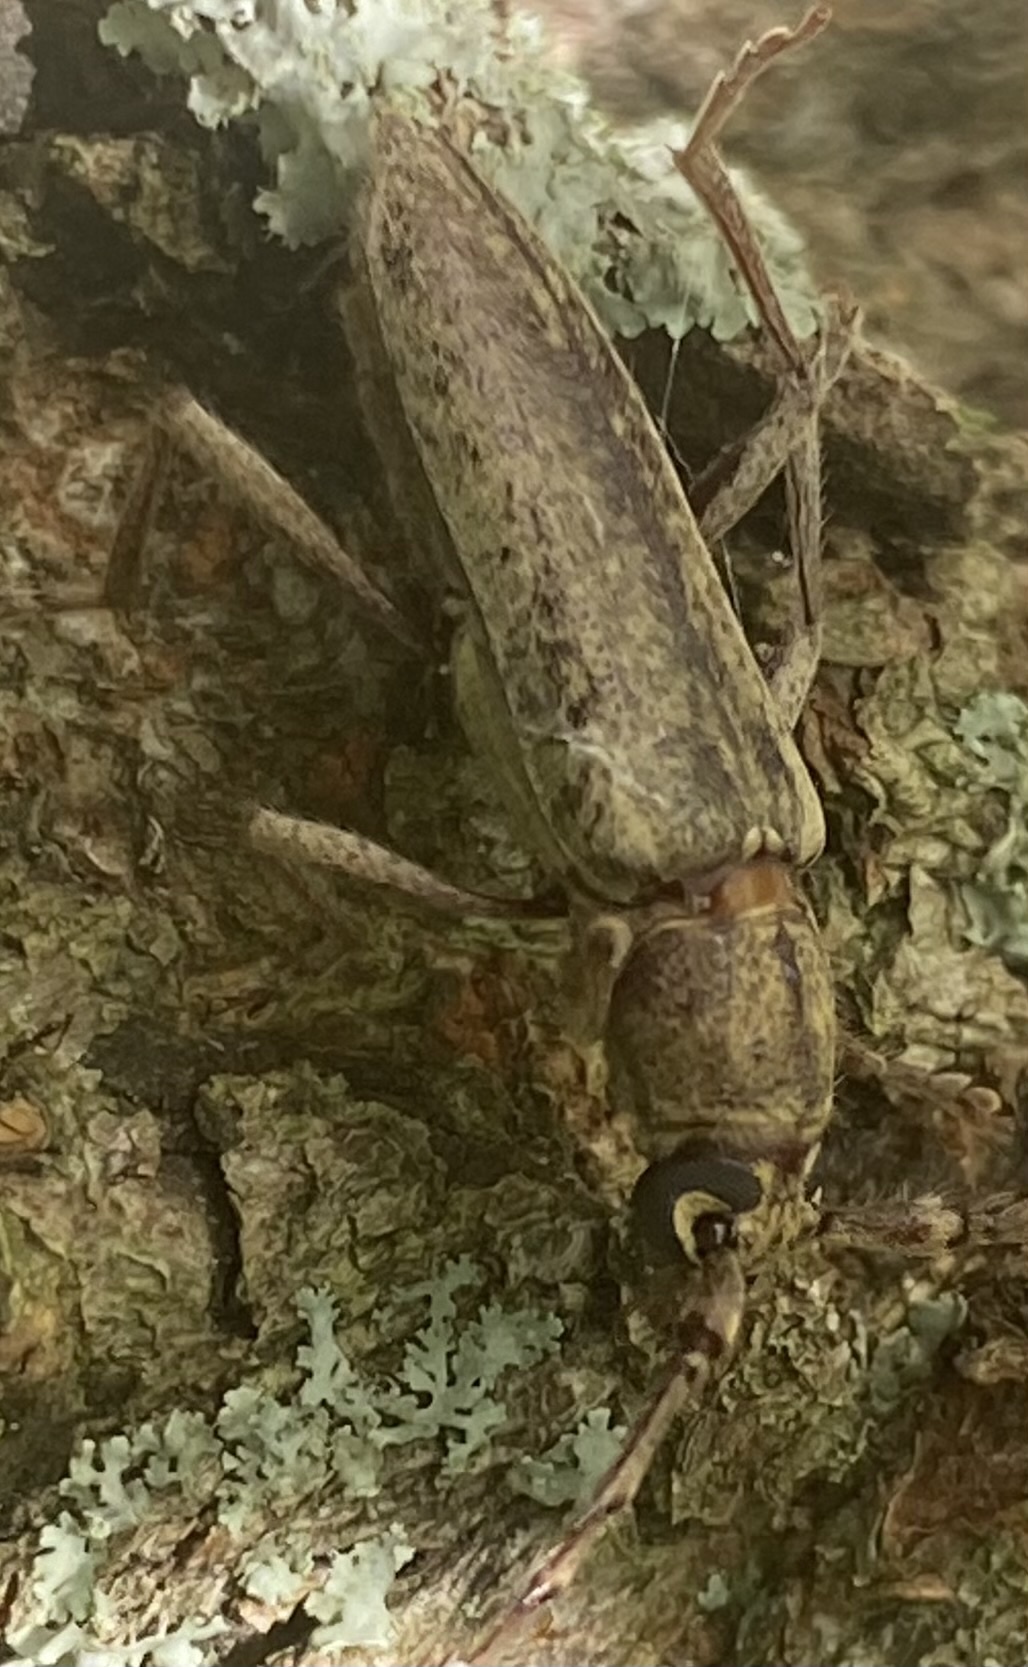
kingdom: Animalia
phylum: Arthropoda
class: Insecta
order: Coleoptera
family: Cerambycidae
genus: Elaphidion
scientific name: Elaphidion mucronatum
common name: Spined oak borer
